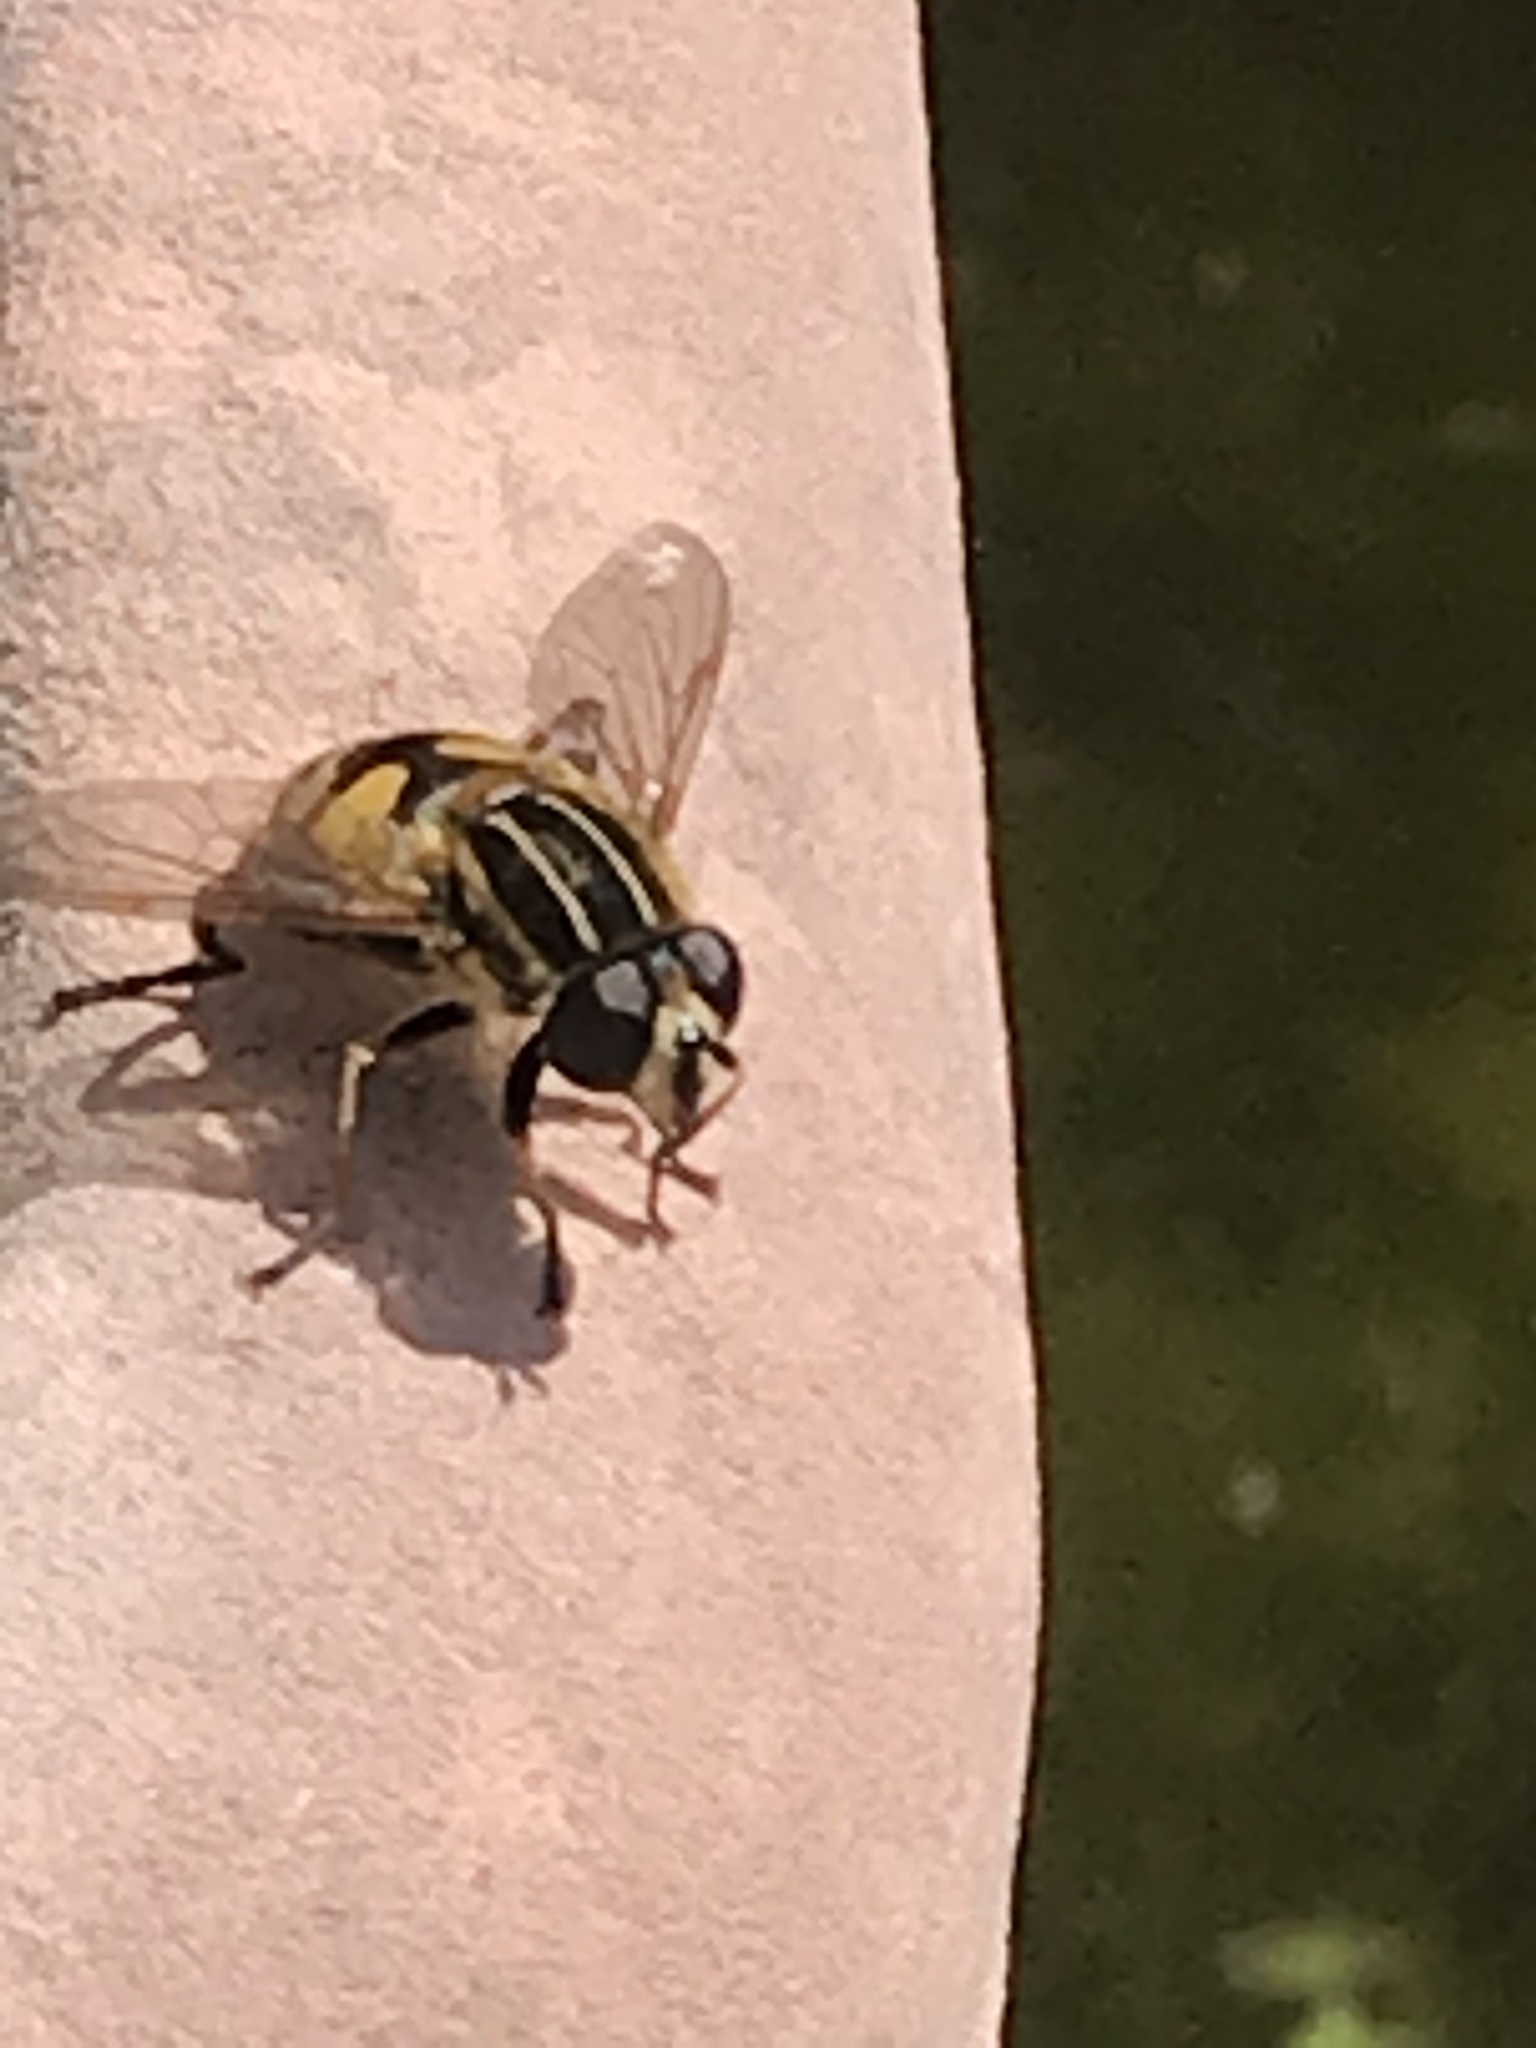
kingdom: Animalia
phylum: Arthropoda
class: Insecta
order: Diptera
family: Syrphidae
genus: Helophilus
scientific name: Helophilus pendulus
